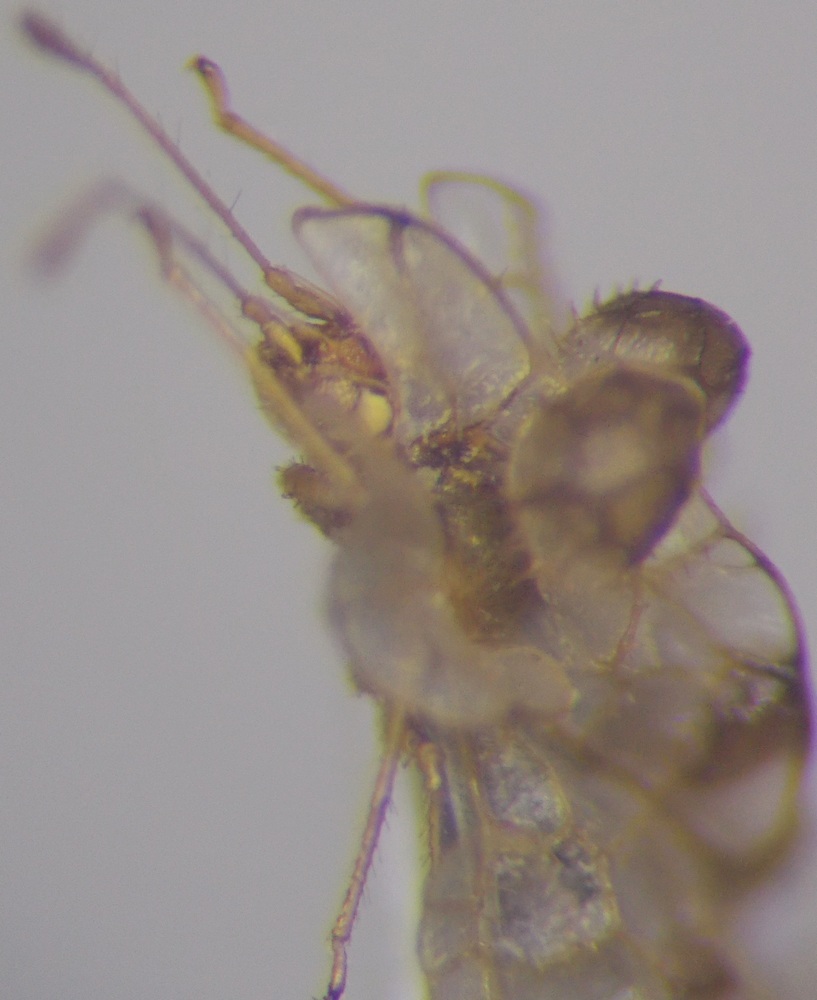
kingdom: Animalia
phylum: Arthropoda
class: Insecta
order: Hemiptera
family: Tingidae
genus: Hyalochiton
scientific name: Hyalochiton komaroffii
